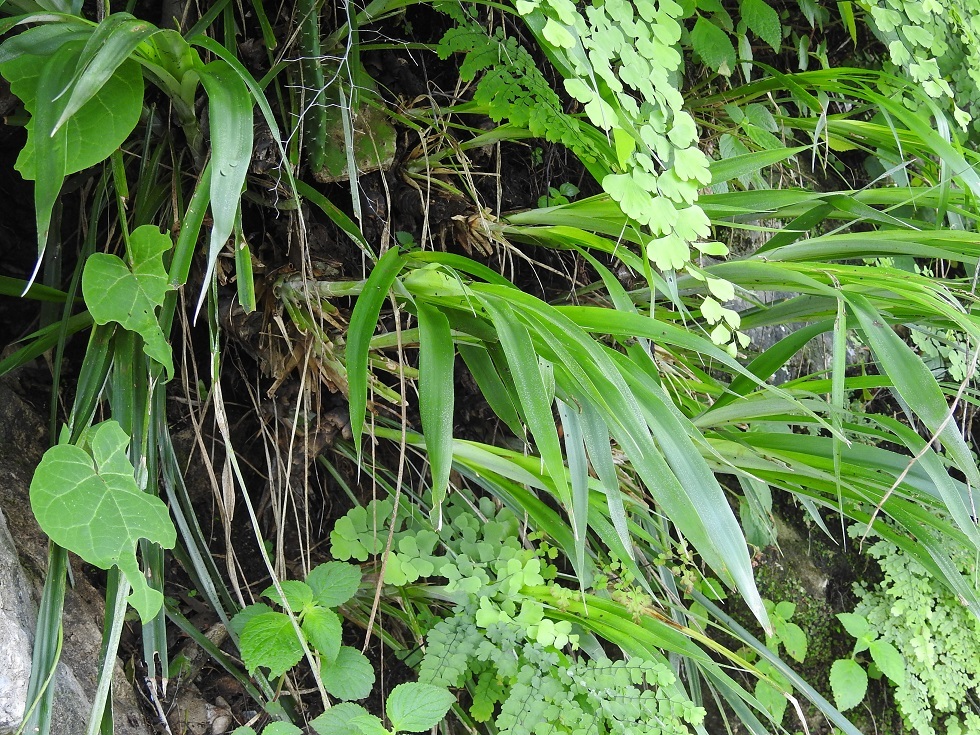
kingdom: Plantae
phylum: Tracheophyta
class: Liliopsida
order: Poales
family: Bromeliaceae
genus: Pitcairnia
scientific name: Pitcairnia heterophylla
